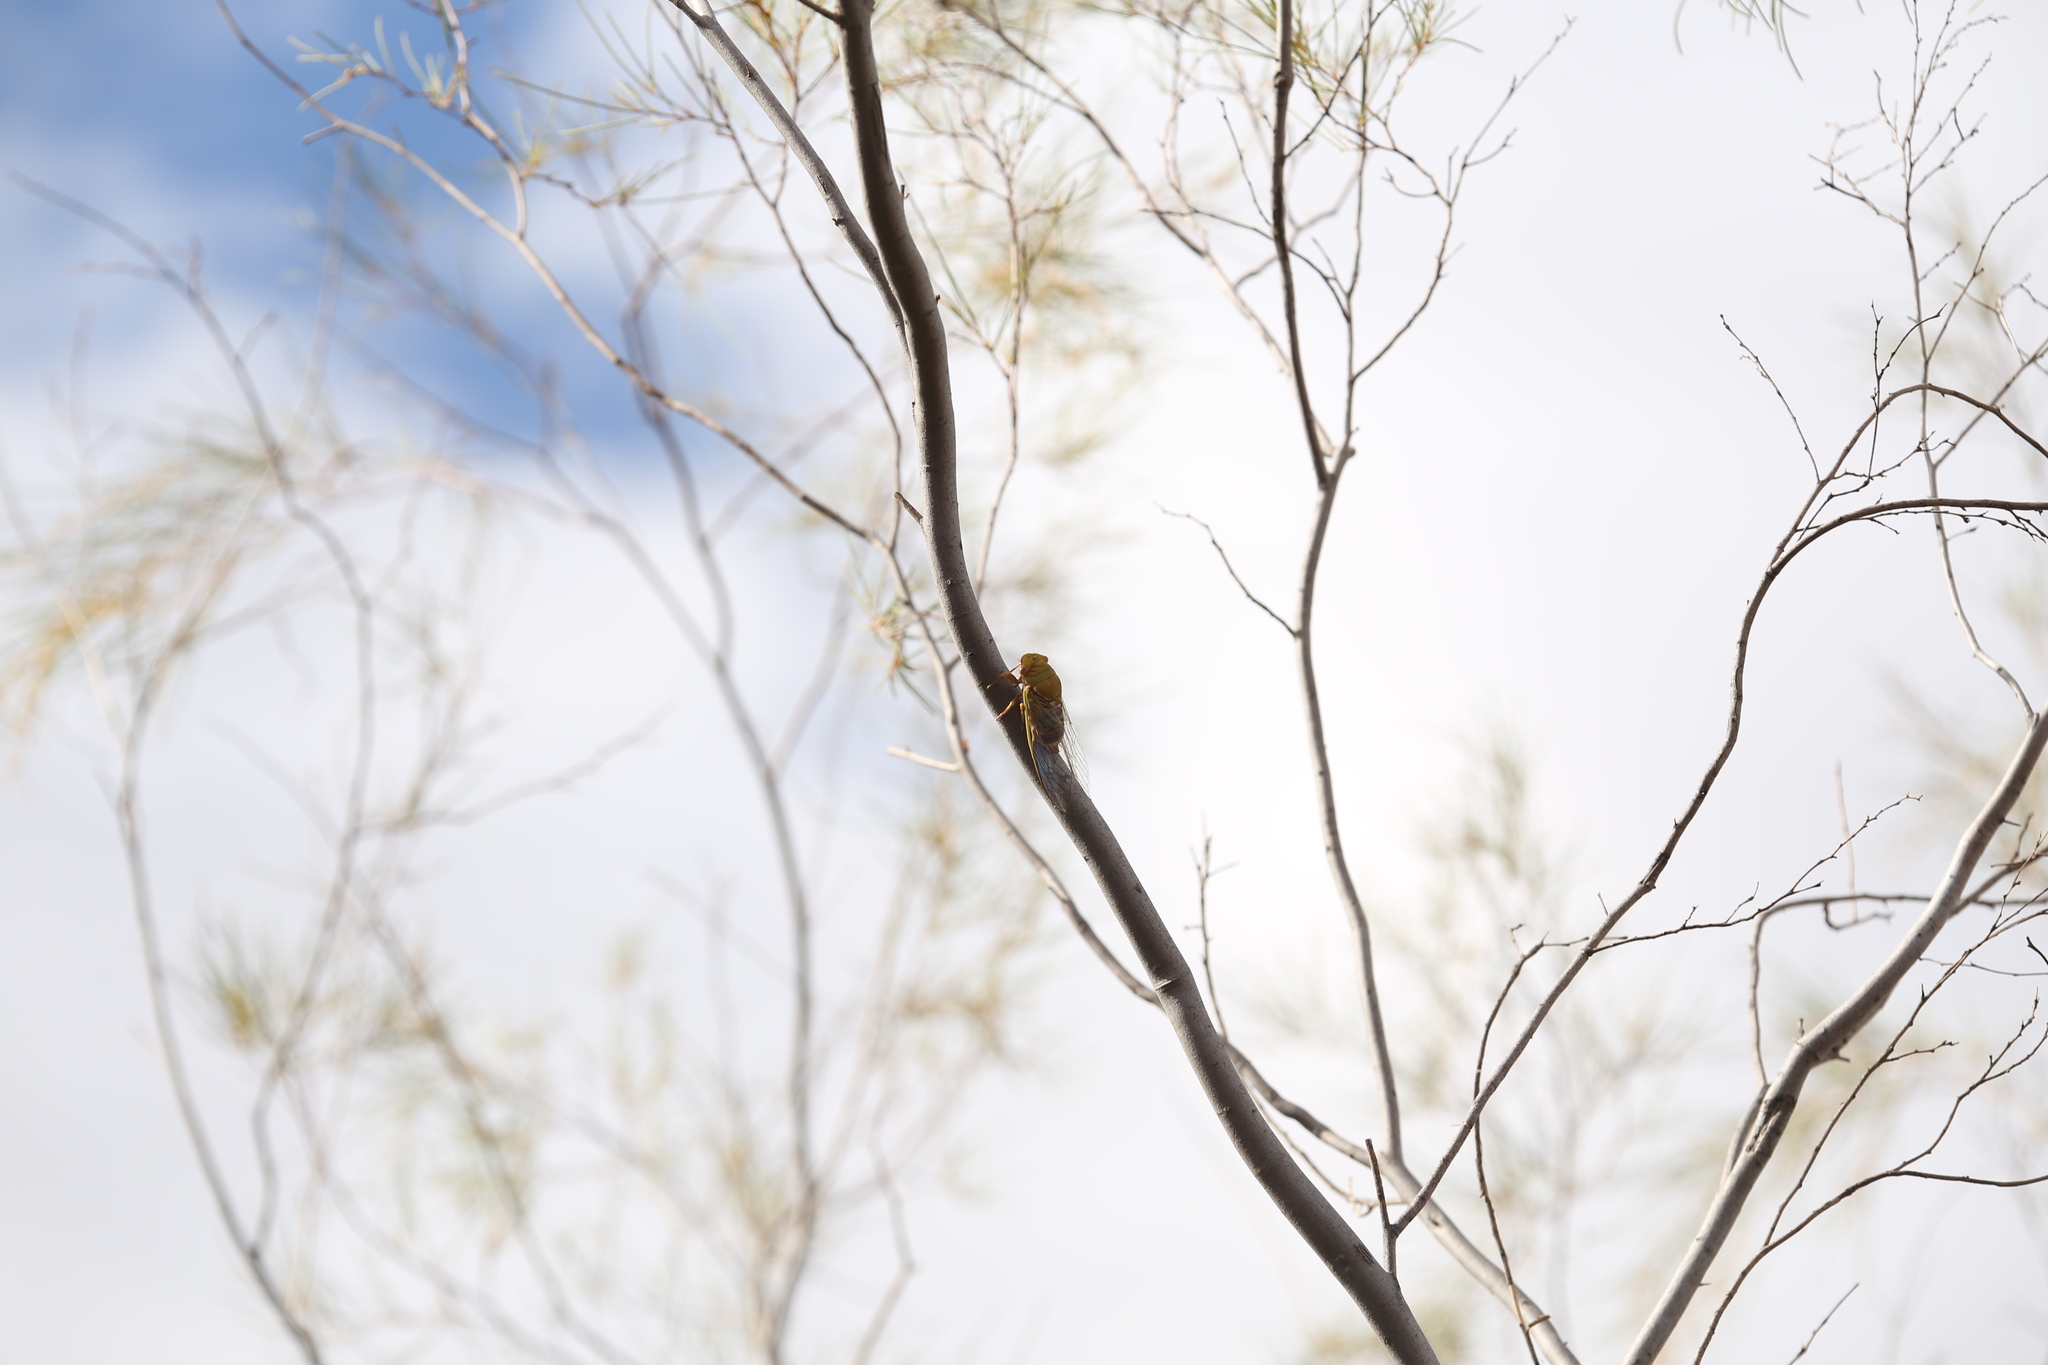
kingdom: Animalia
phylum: Arthropoda
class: Insecta
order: Hemiptera
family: Cicadidae
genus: Macrotristria
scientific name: Macrotristria extrema
